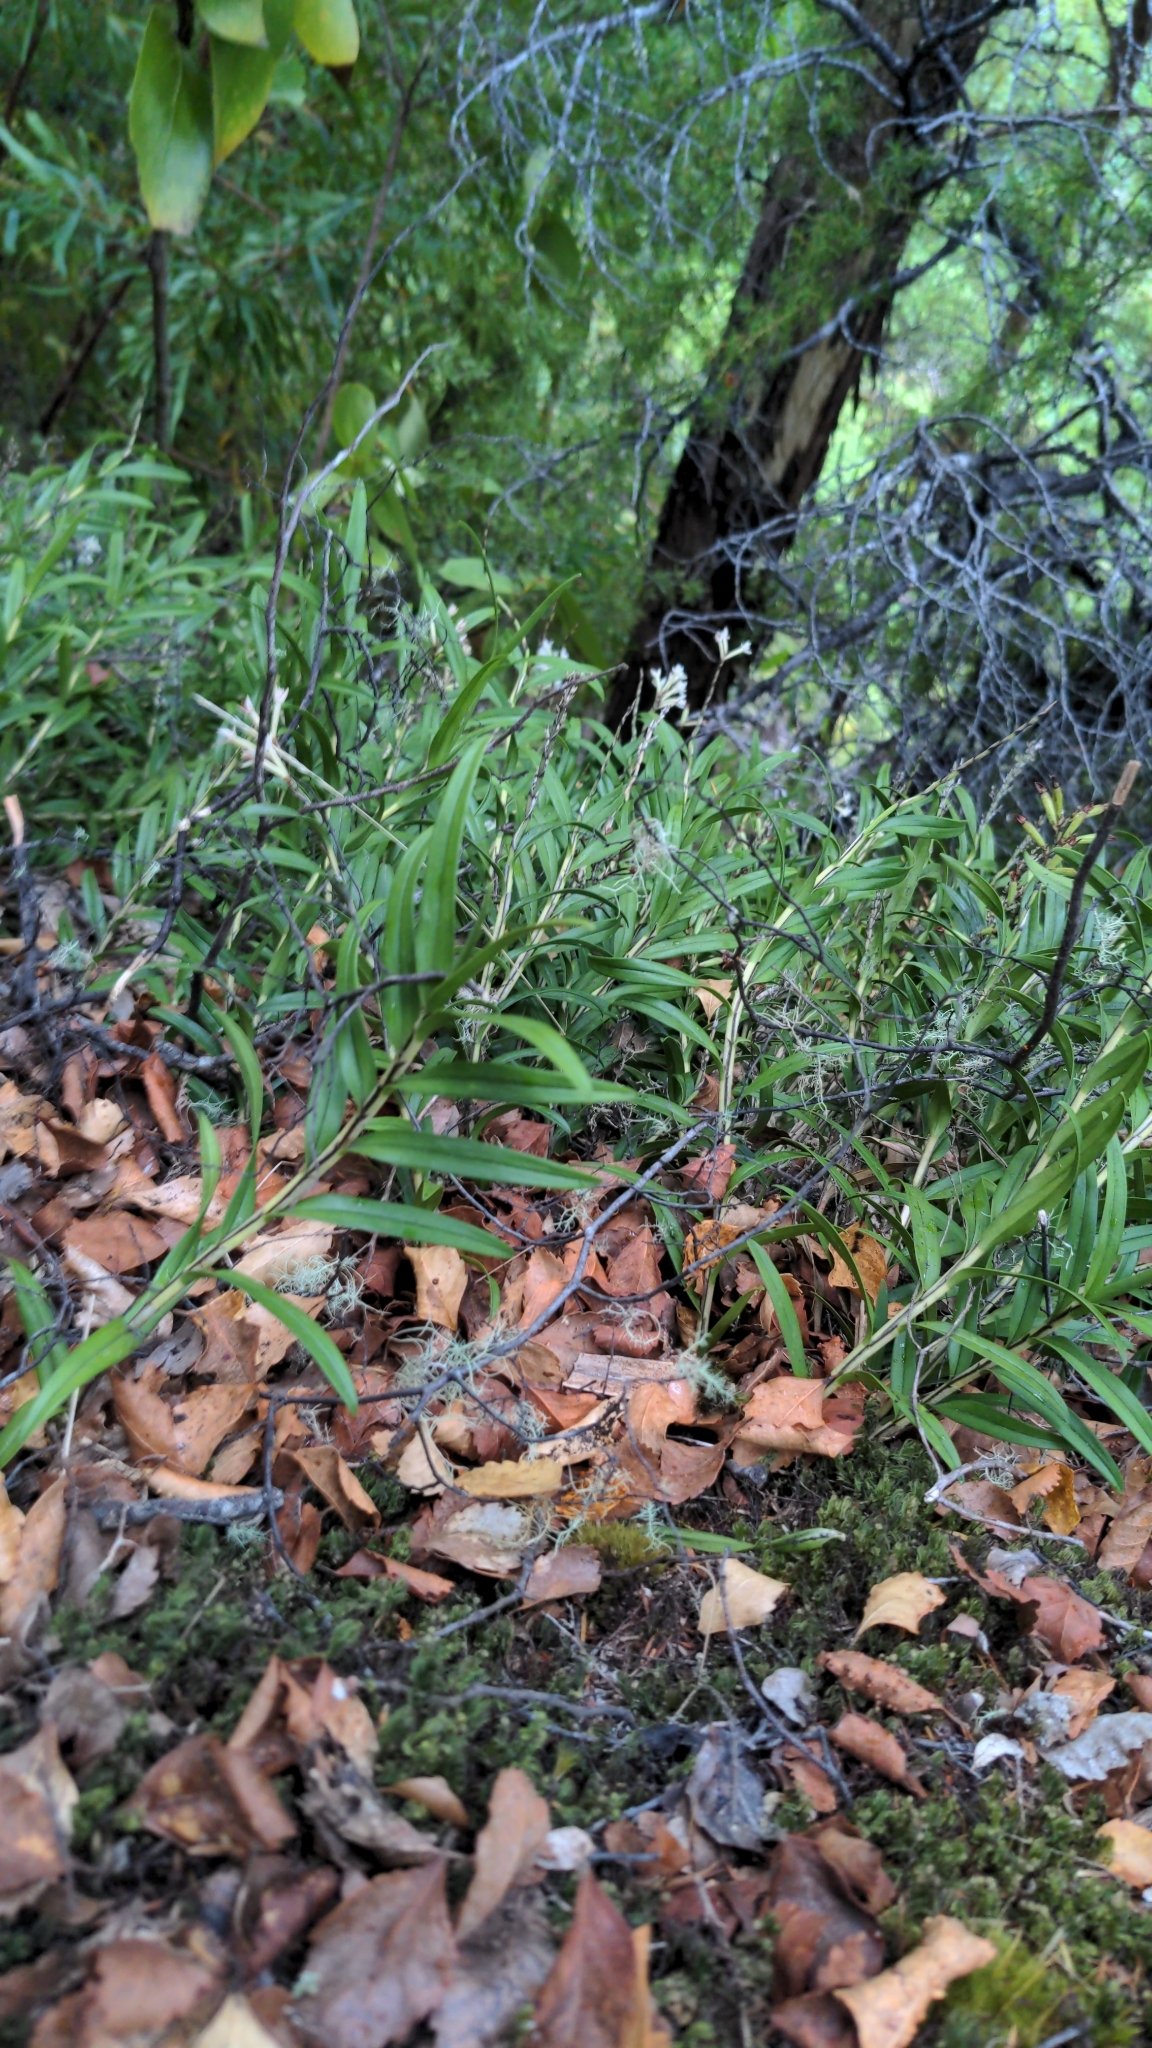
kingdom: Plantae
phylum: Tracheophyta
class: Liliopsida
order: Asparagales
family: Orchidaceae
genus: Earina
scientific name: Earina autumnalis
